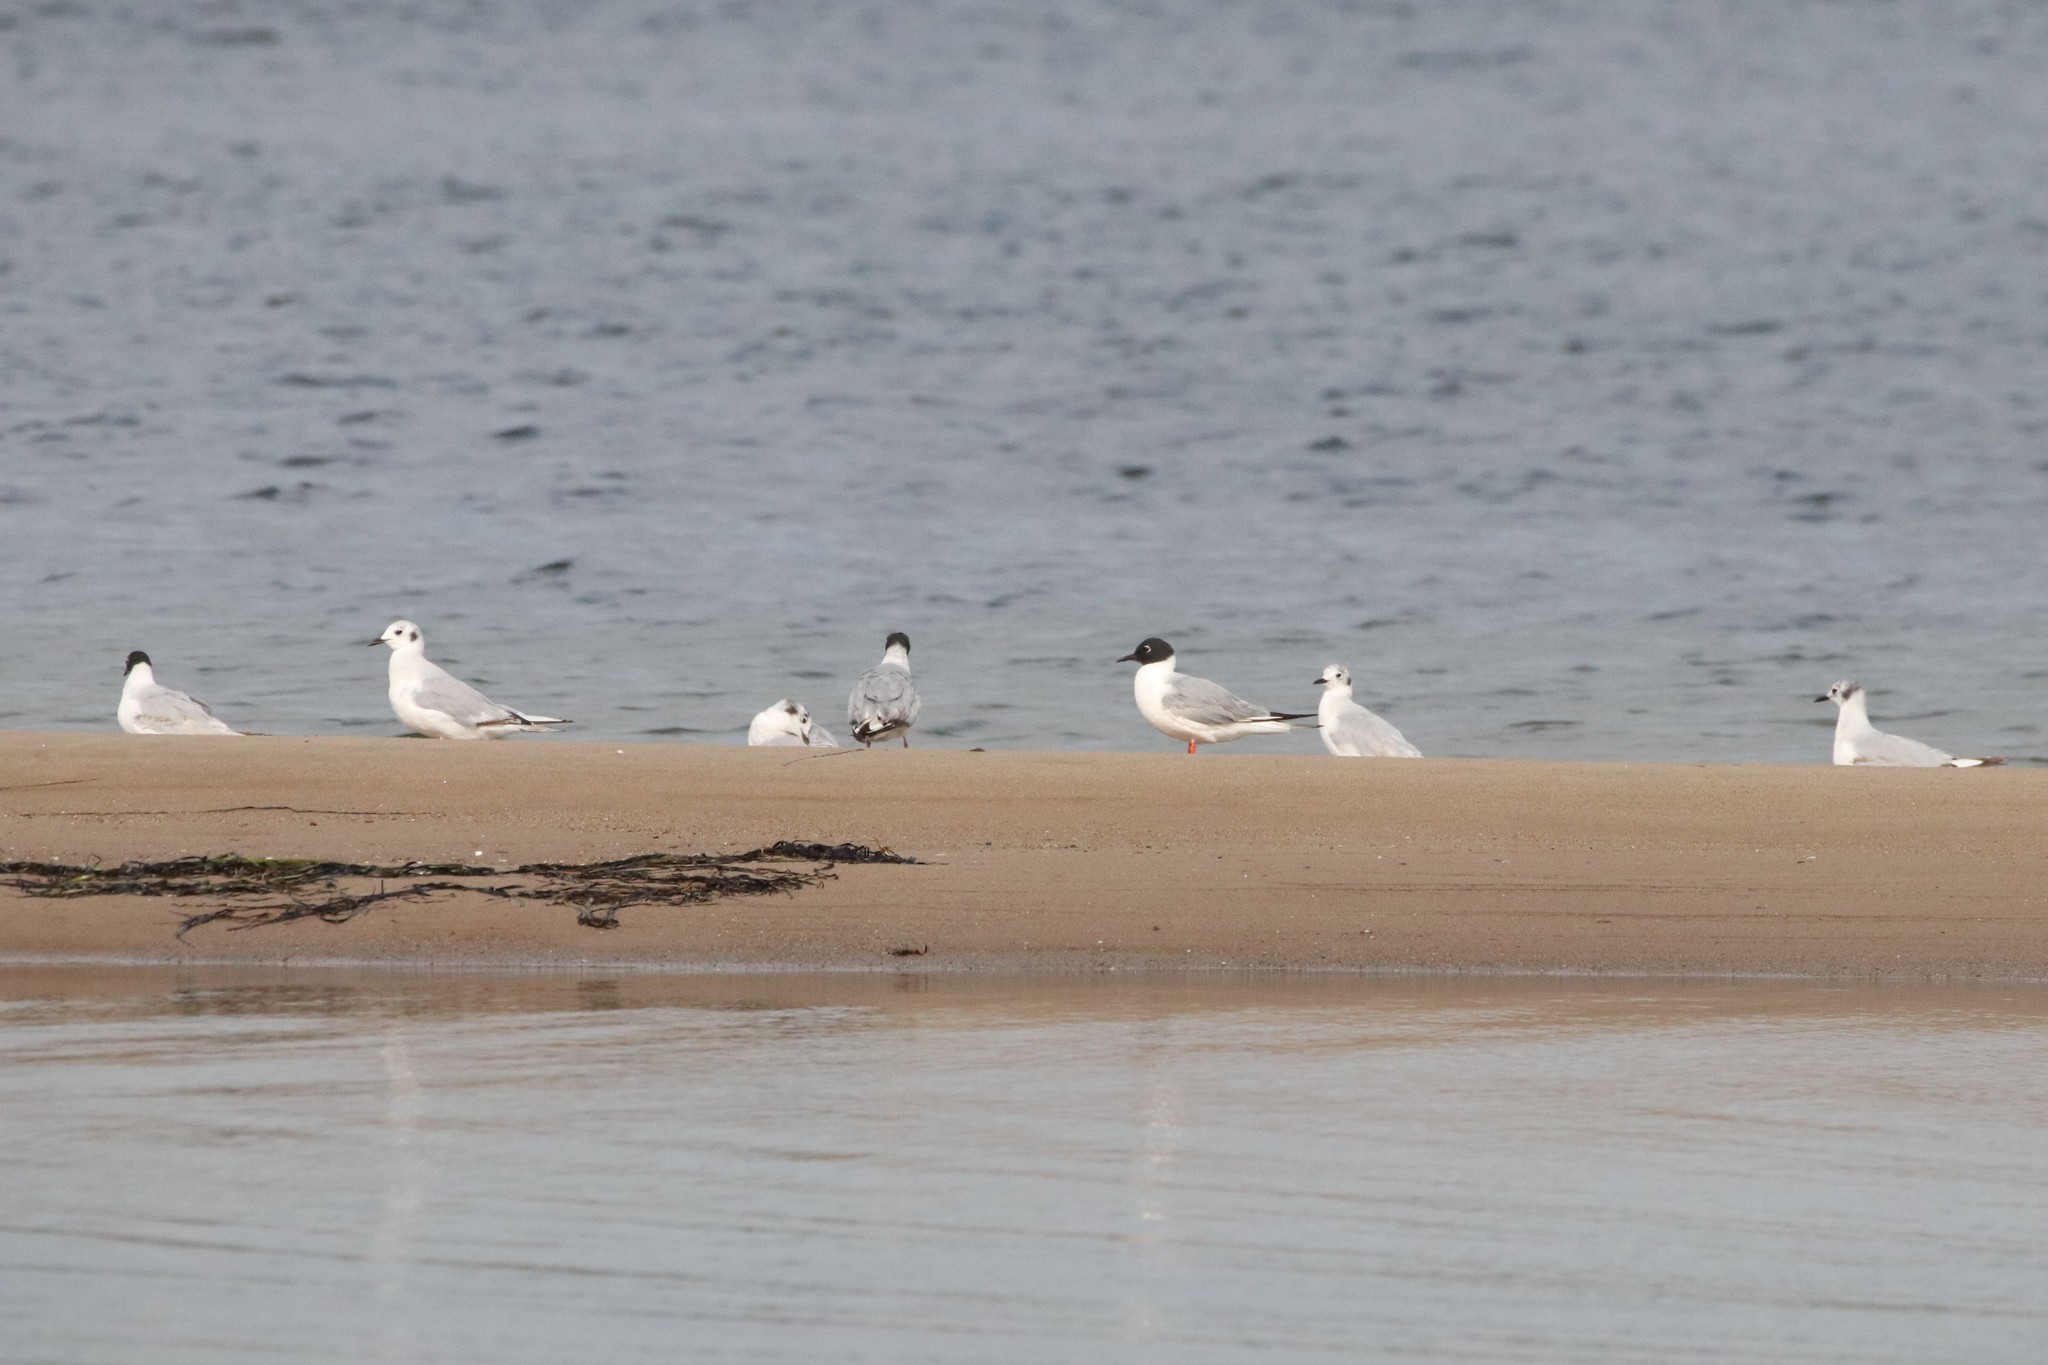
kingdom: Animalia
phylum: Chordata
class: Aves
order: Charadriiformes
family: Laridae
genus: Chroicocephalus
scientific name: Chroicocephalus philadelphia
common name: Bonaparte's gull
